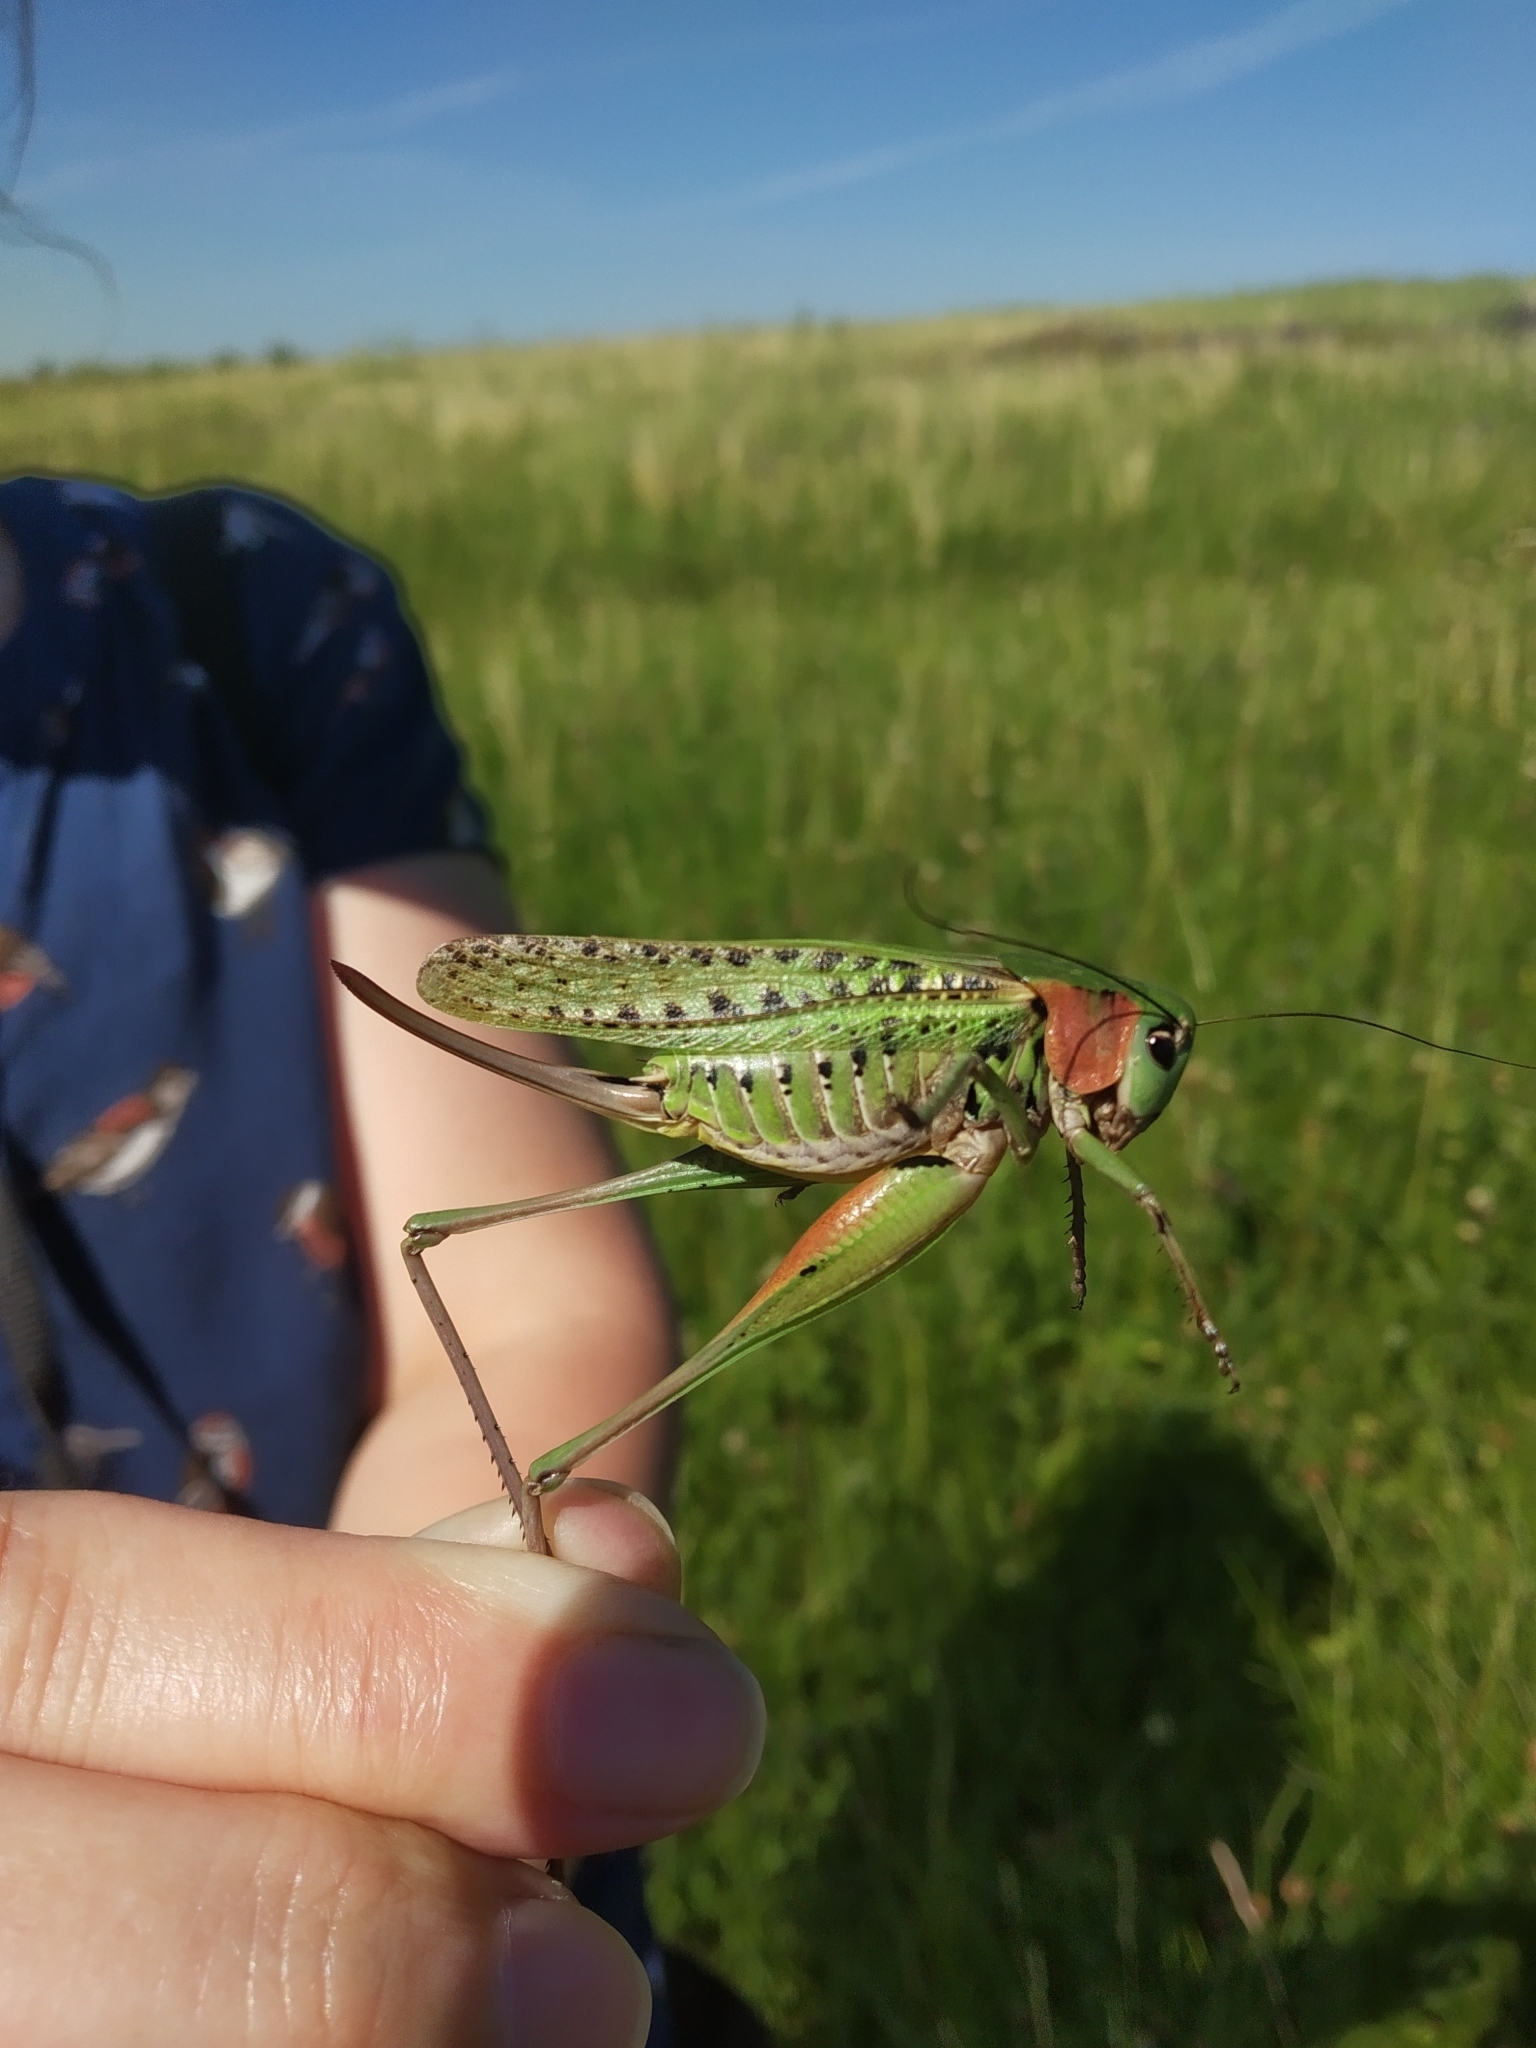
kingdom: Animalia
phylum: Arthropoda
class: Insecta
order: Orthoptera
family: Tettigoniidae
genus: Decticus
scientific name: Decticus verrucivorus
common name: Wart-biter
